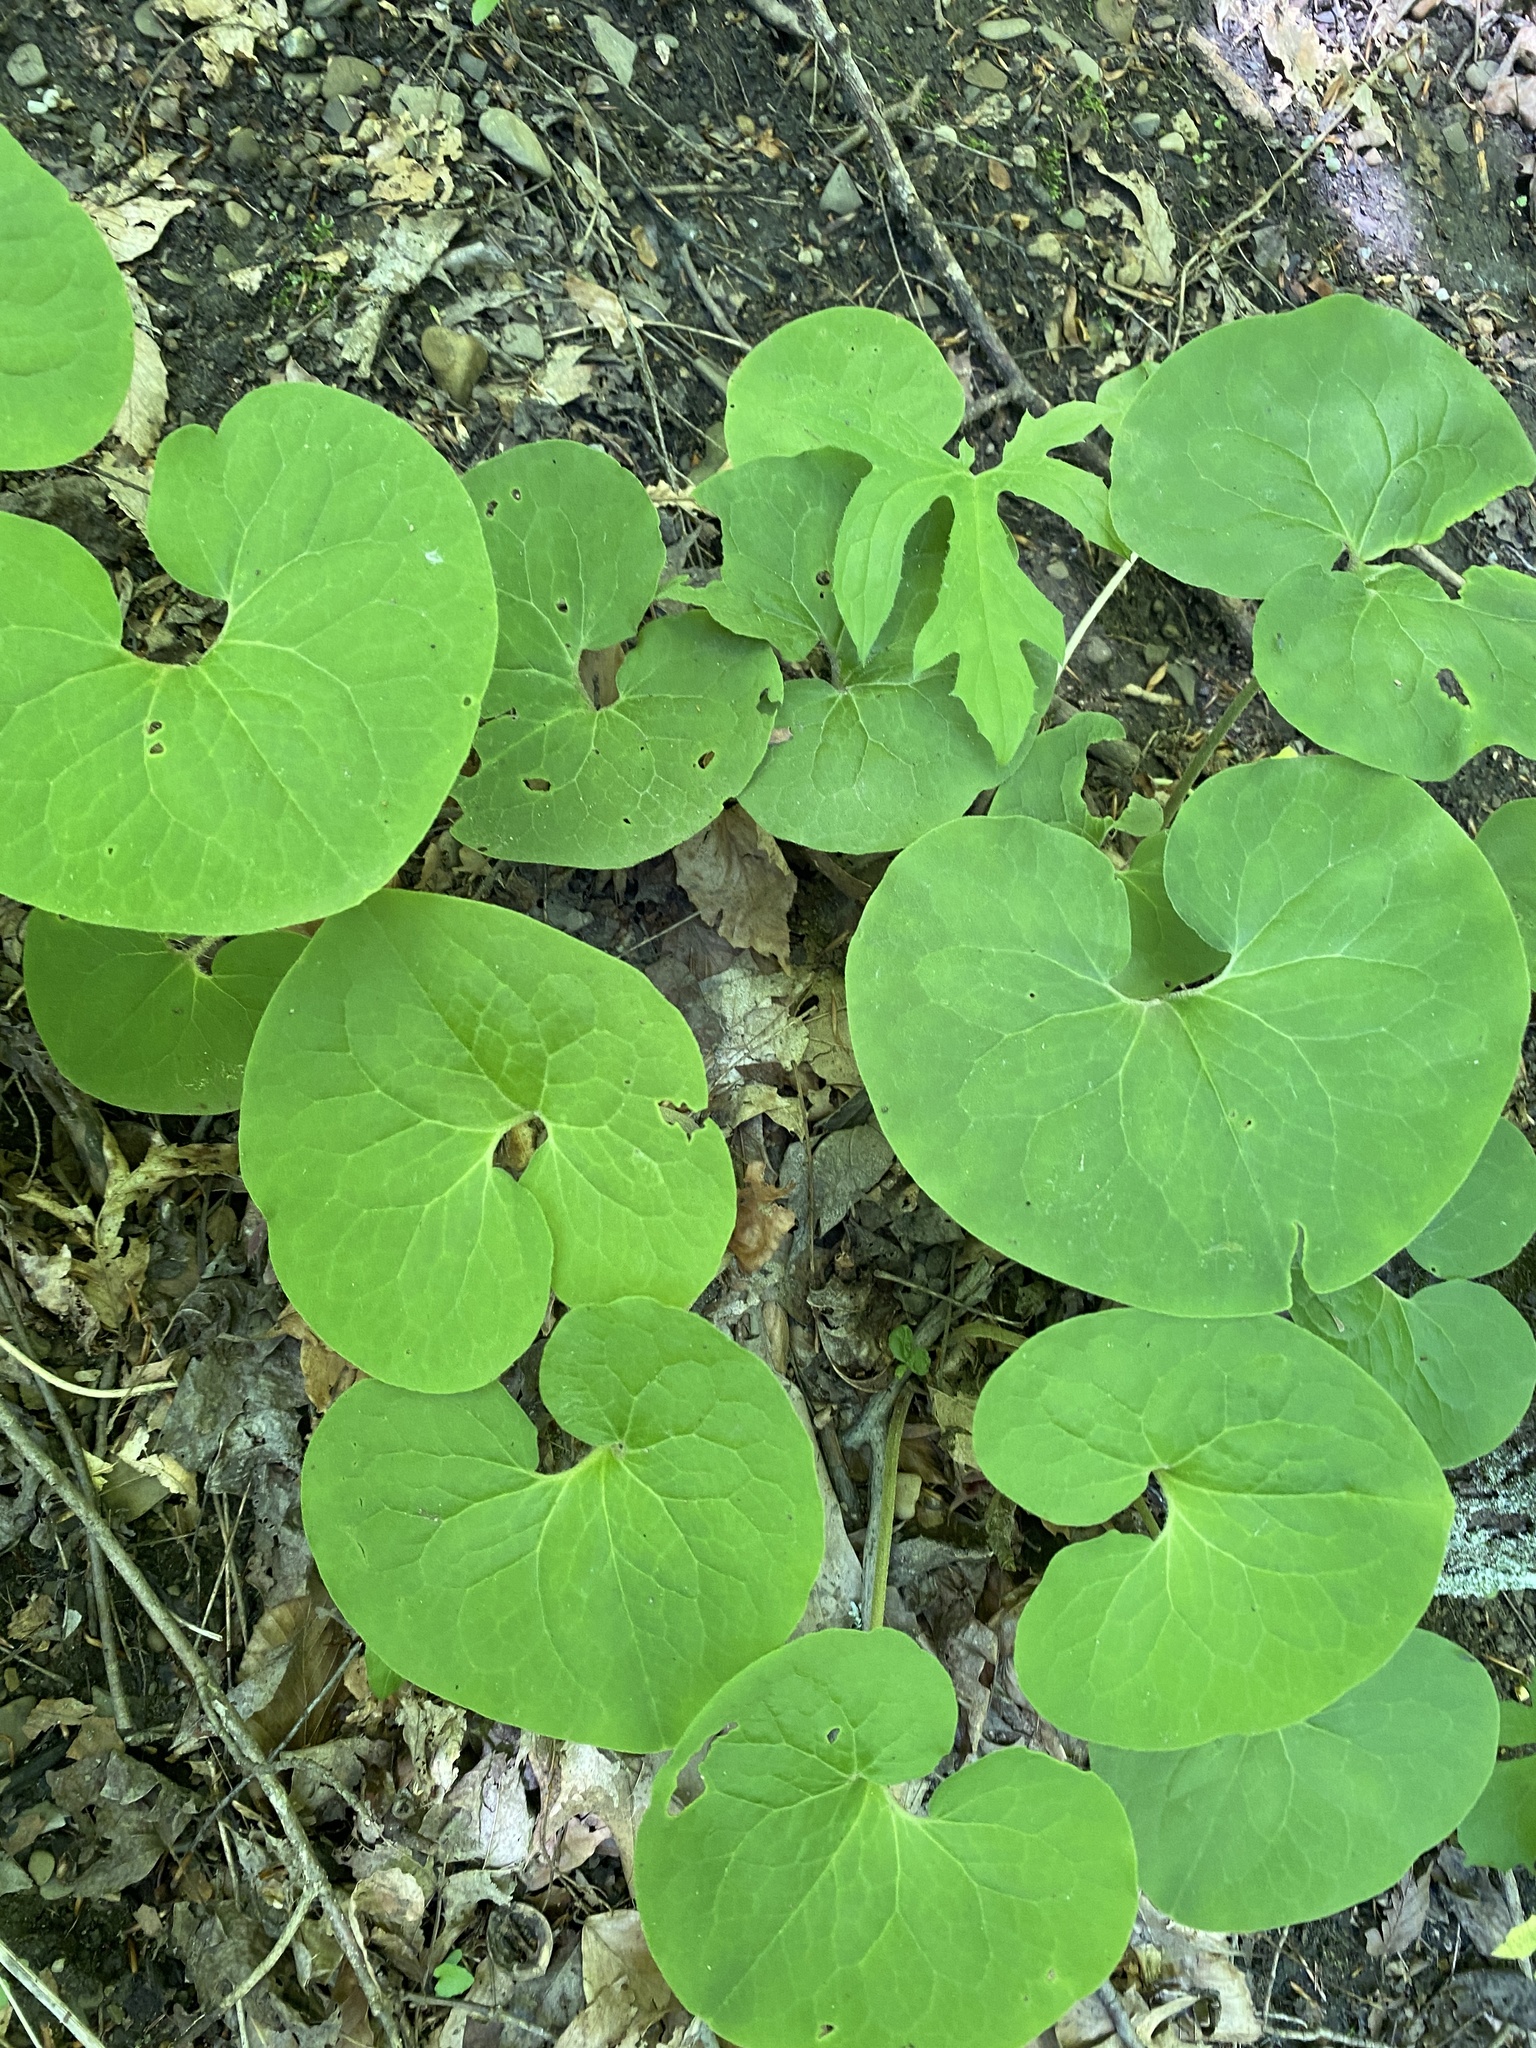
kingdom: Plantae
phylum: Tracheophyta
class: Magnoliopsida
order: Piperales
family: Aristolochiaceae
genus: Asarum
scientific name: Asarum canadense
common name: Wild ginger
